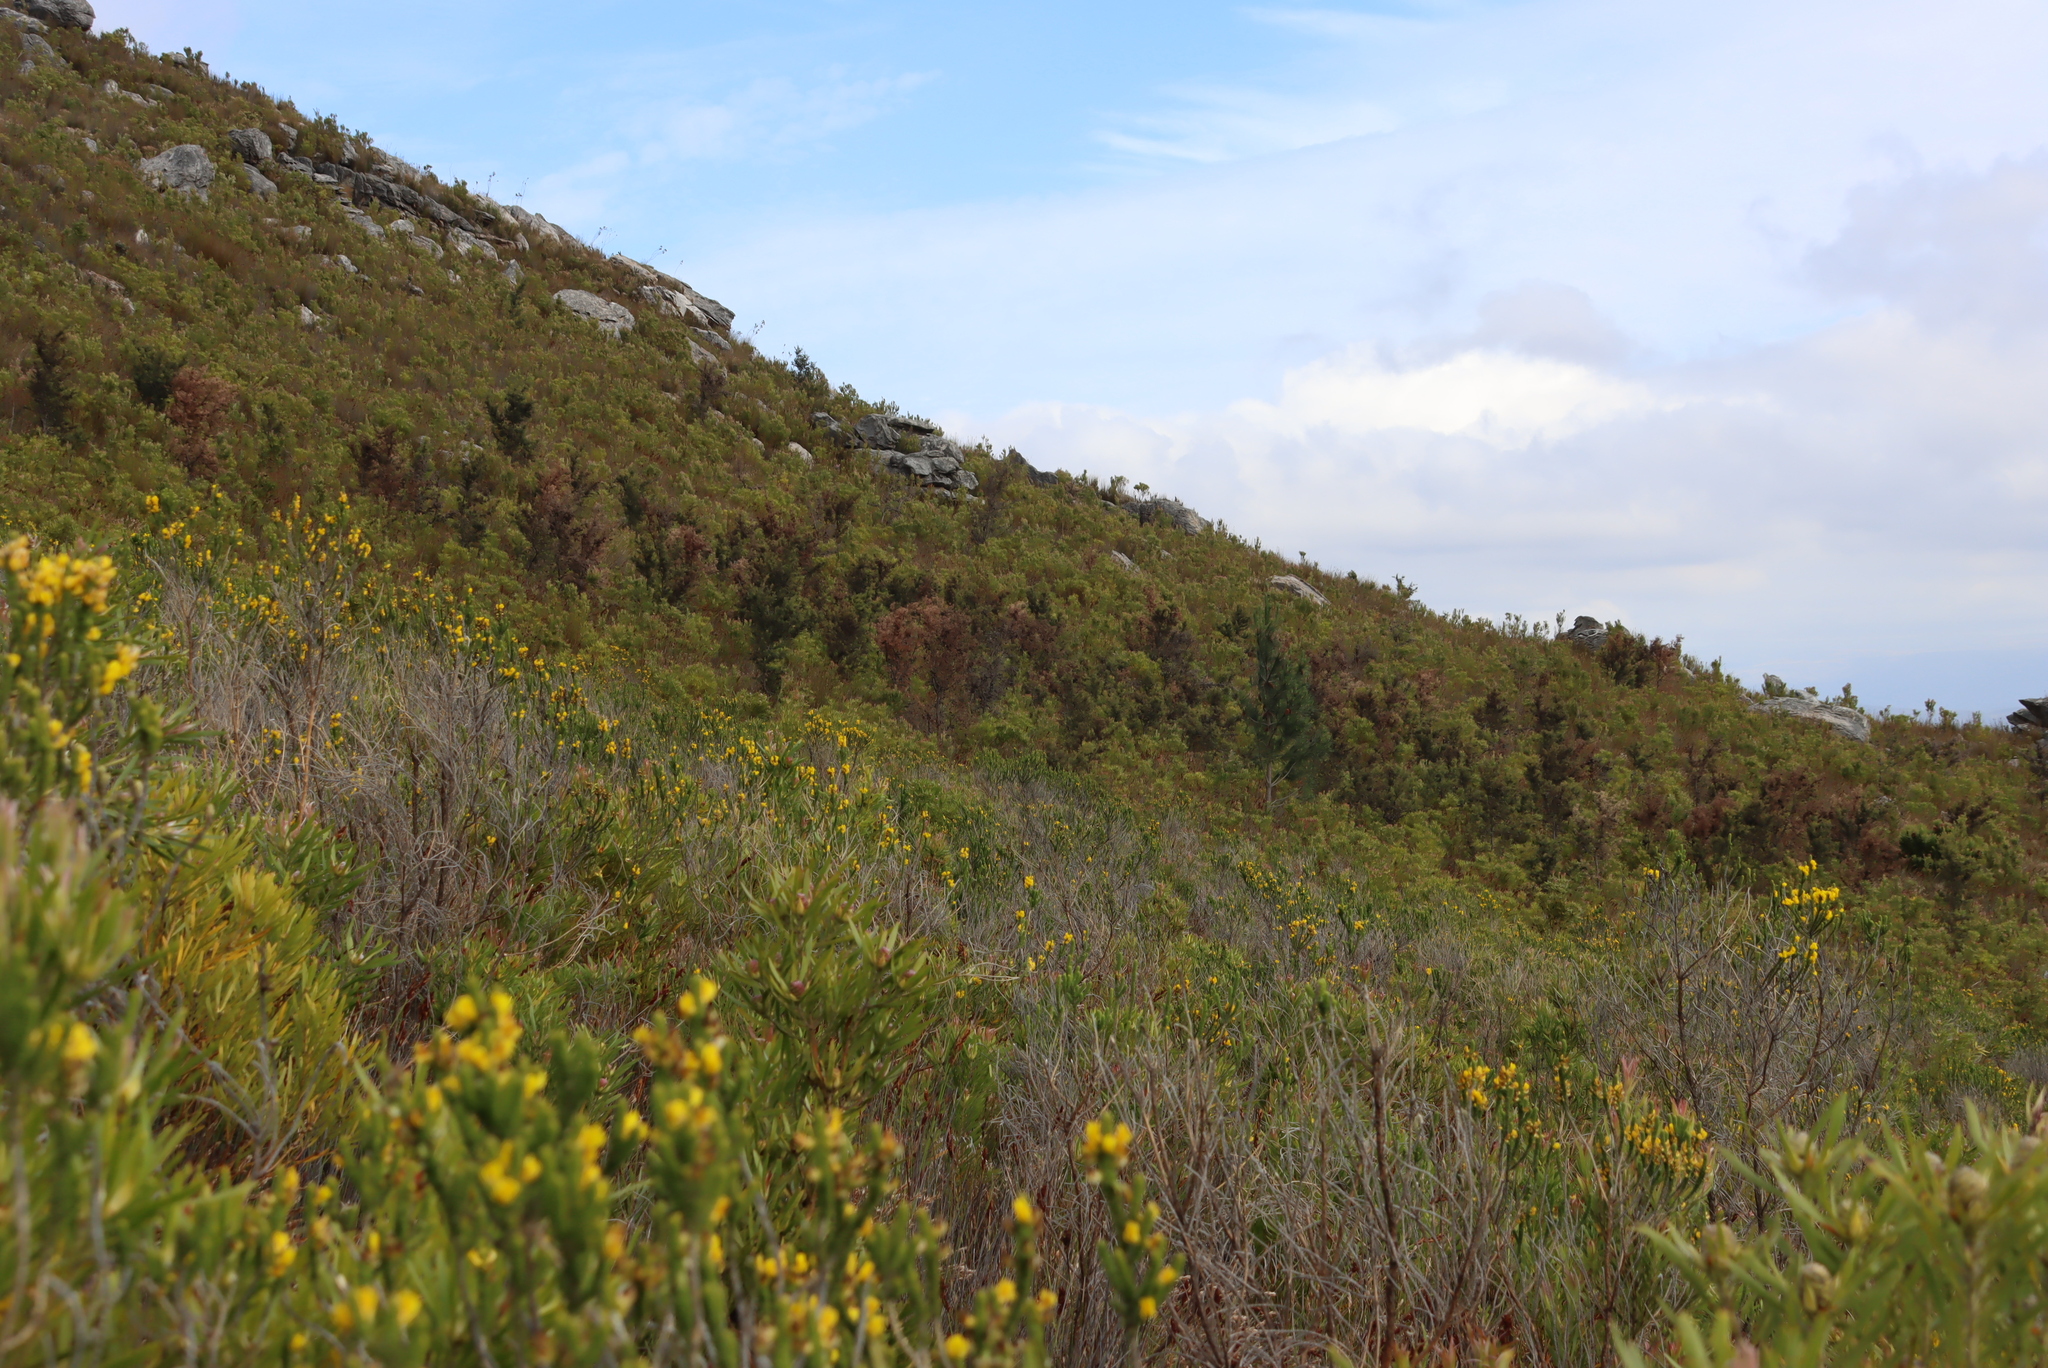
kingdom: Plantae
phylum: Tracheophyta
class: Magnoliopsida
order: Proteales
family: Proteaceae
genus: Hakea
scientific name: Hakea sericea
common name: Needle bush
